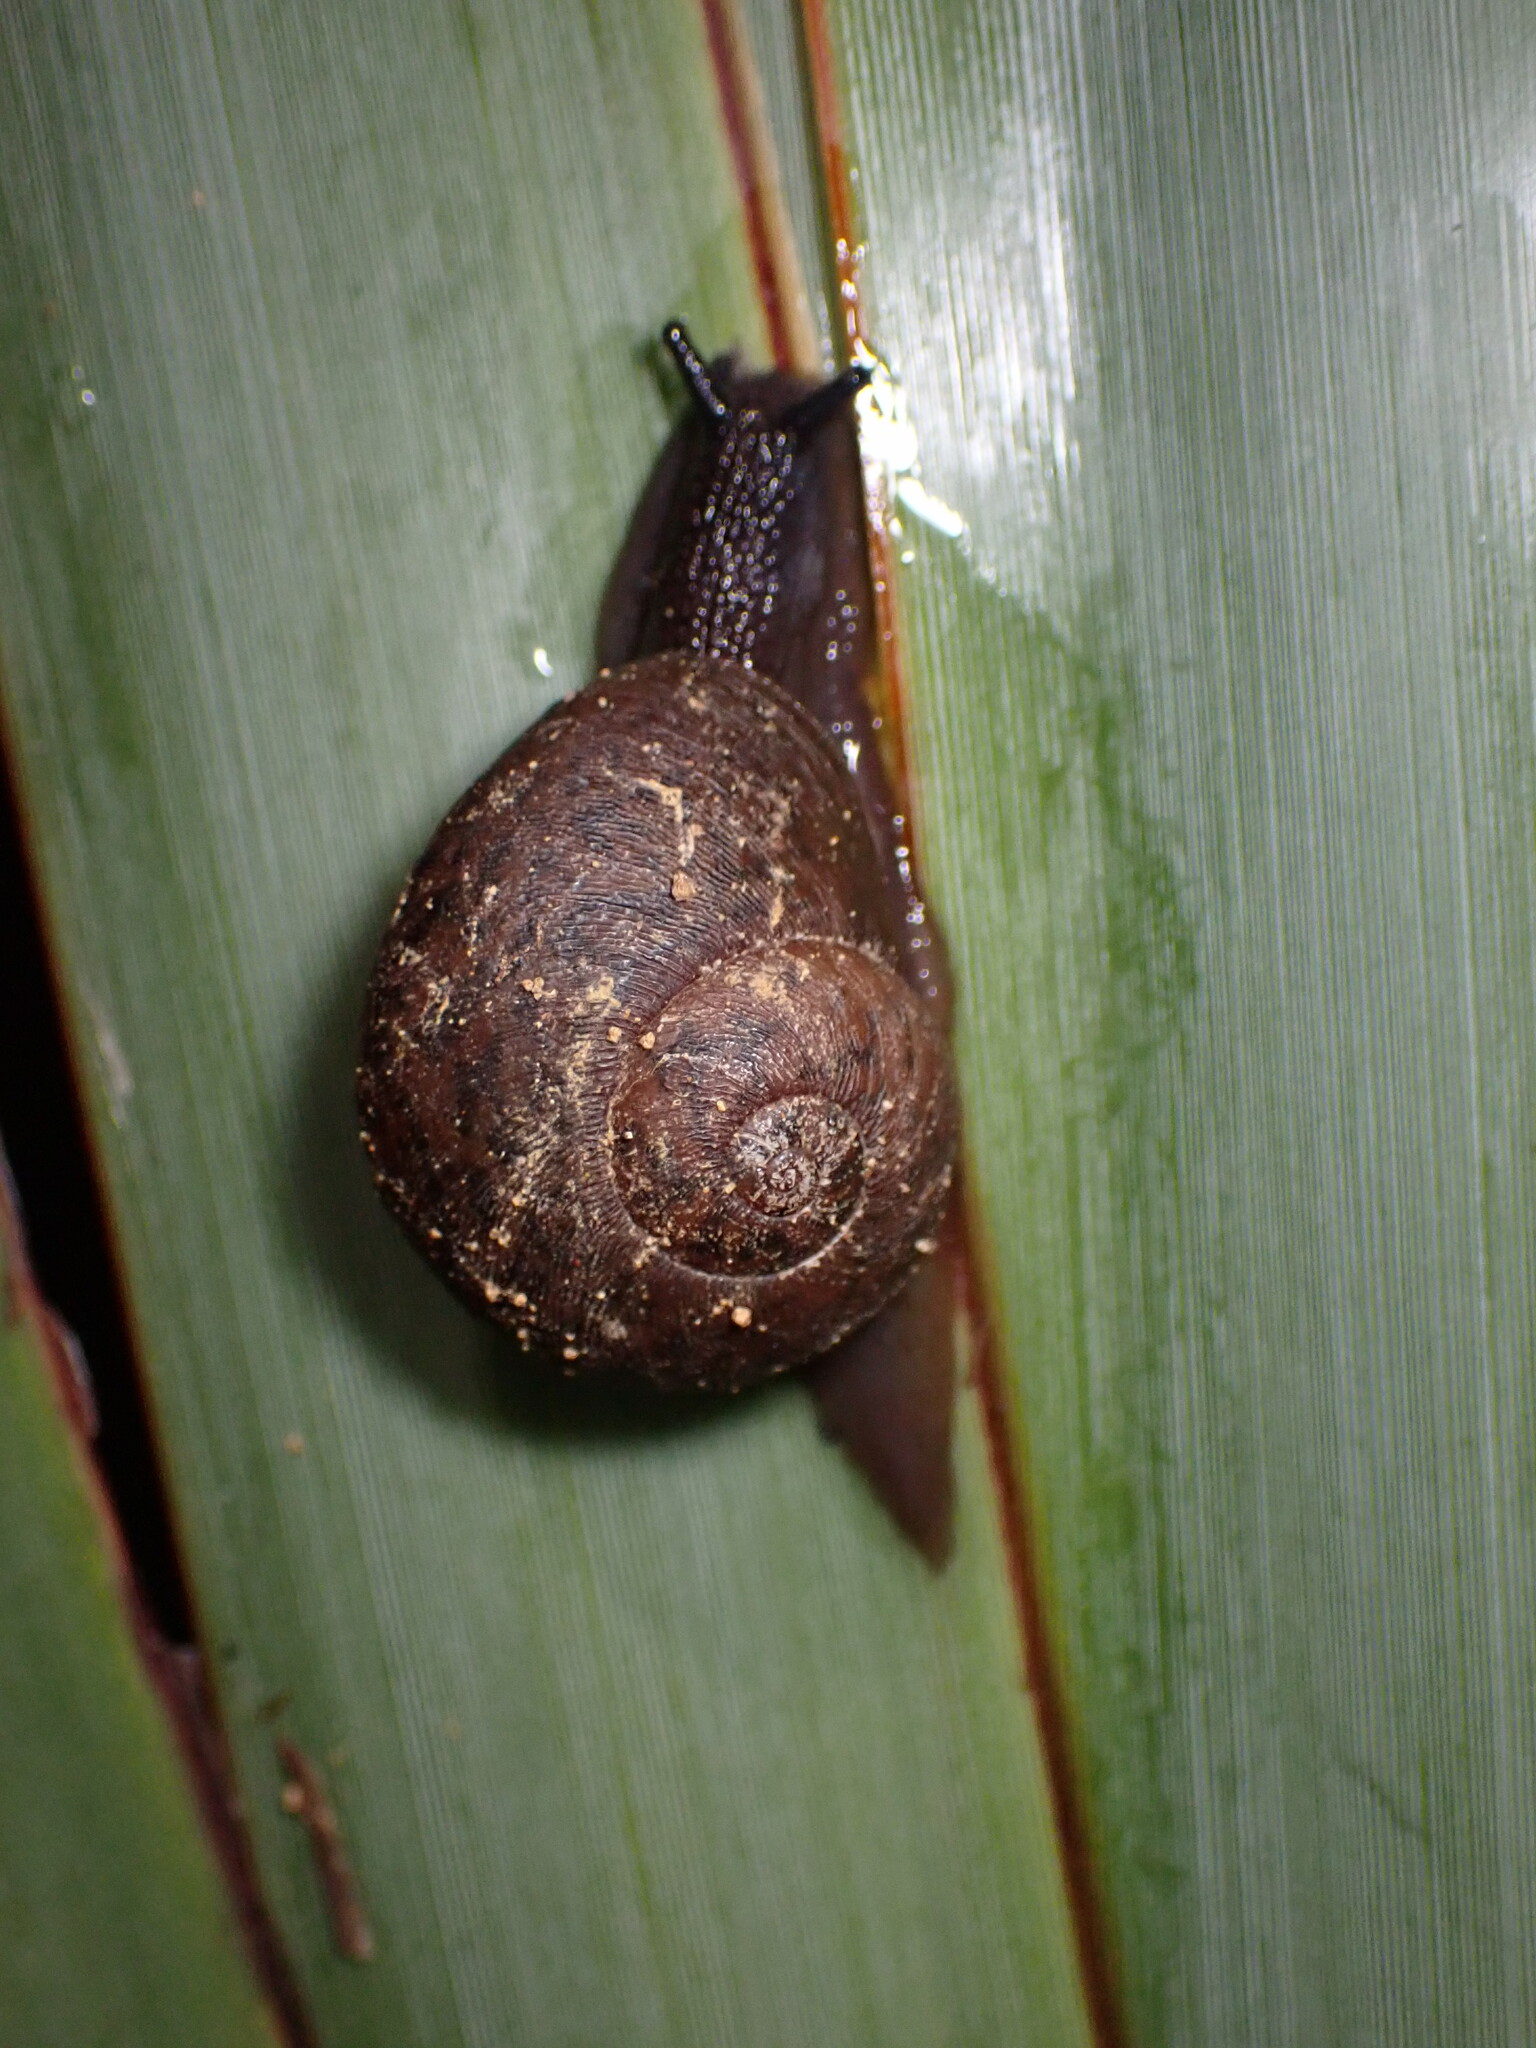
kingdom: Animalia
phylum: Mollusca
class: Gastropoda
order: Stylommatophora
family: Rhytididae
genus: Rhytida
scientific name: Rhytida greenwoodi
